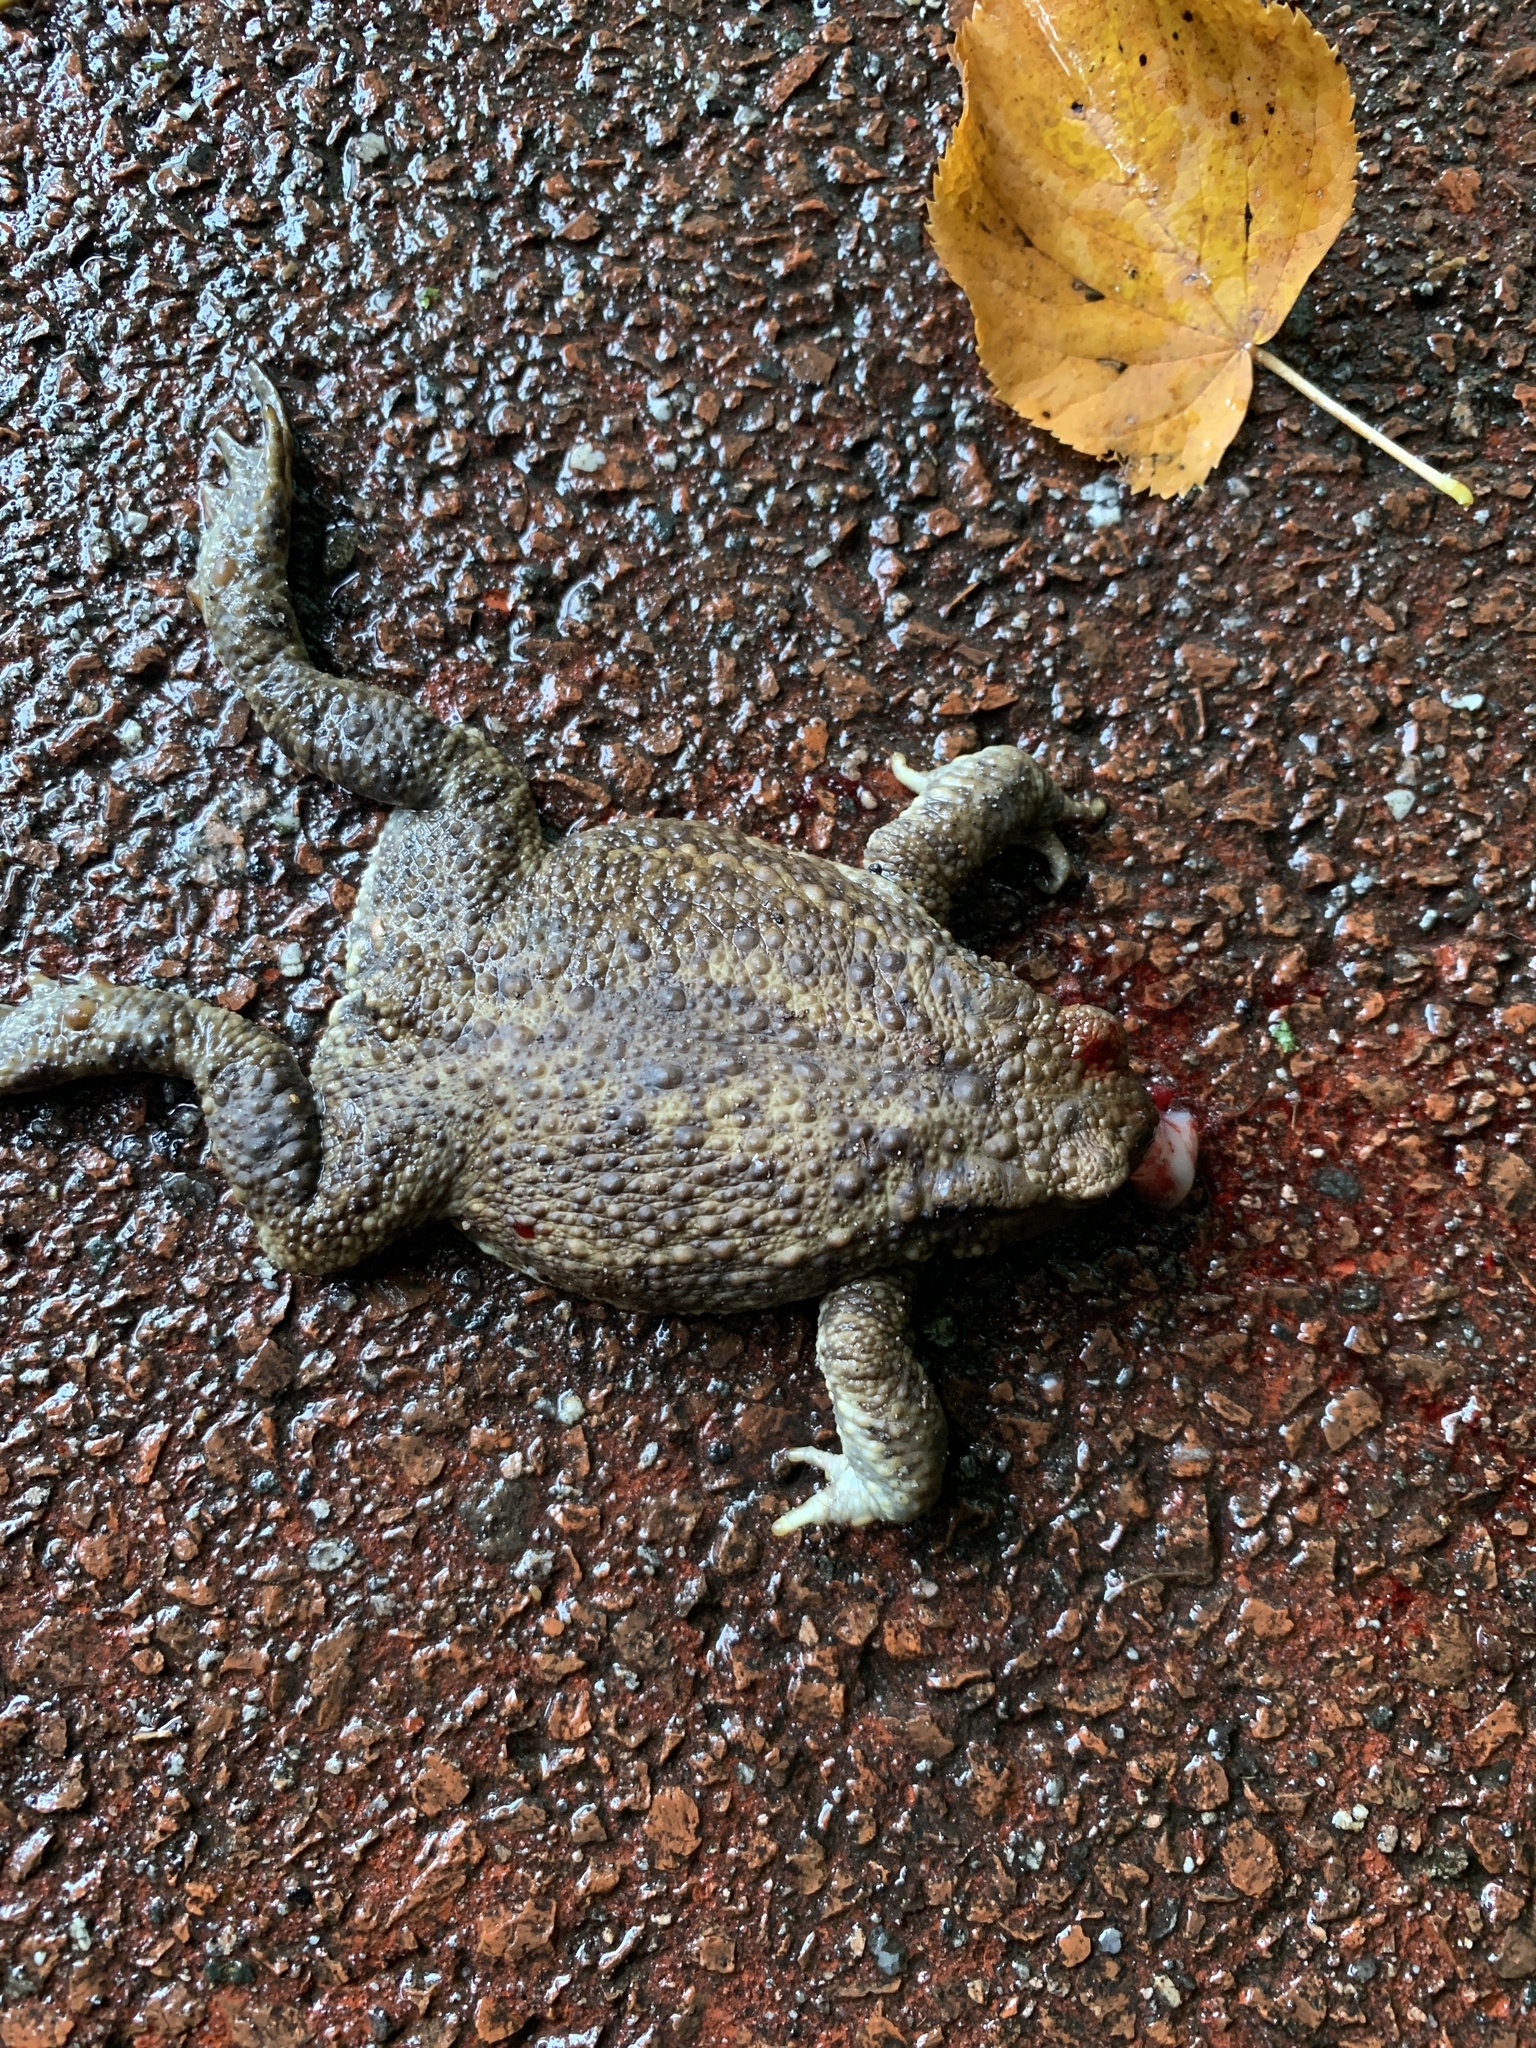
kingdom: Animalia
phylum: Chordata
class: Amphibia
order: Anura
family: Bufonidae
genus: Bufo
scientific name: Bufo bufo
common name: Common toad
